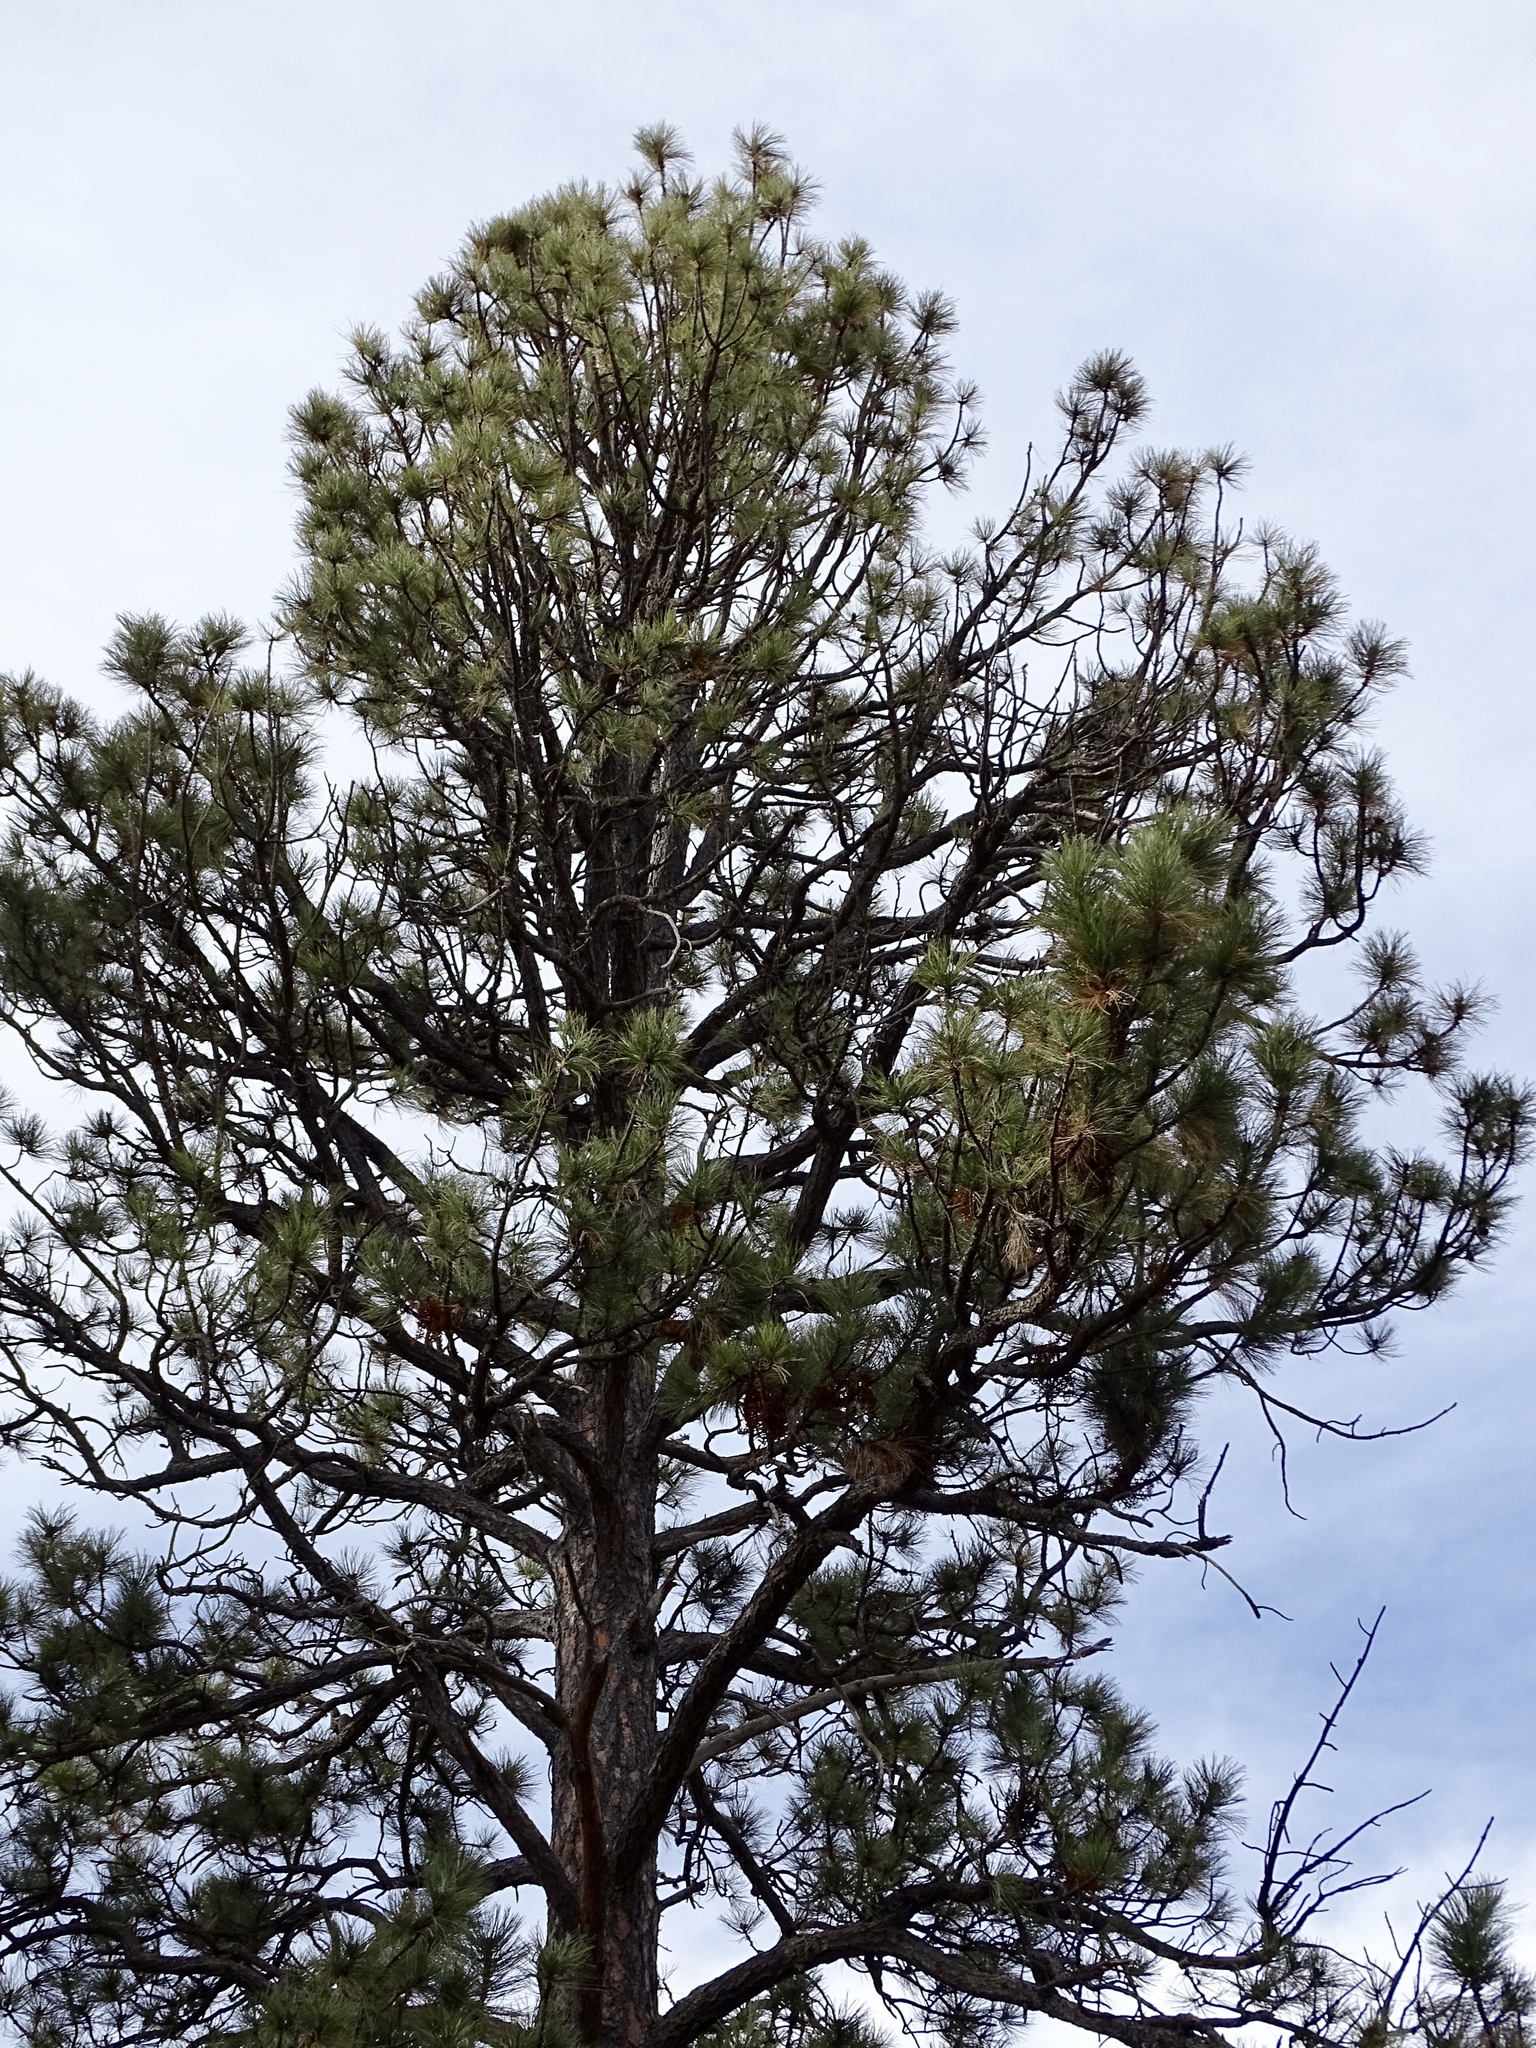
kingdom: Plantae
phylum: Tracheophyta
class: Pinopsida
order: Pinales
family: Pinaceae
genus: Pinus
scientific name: Pinus ponderosa
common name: Western yellow-pine
